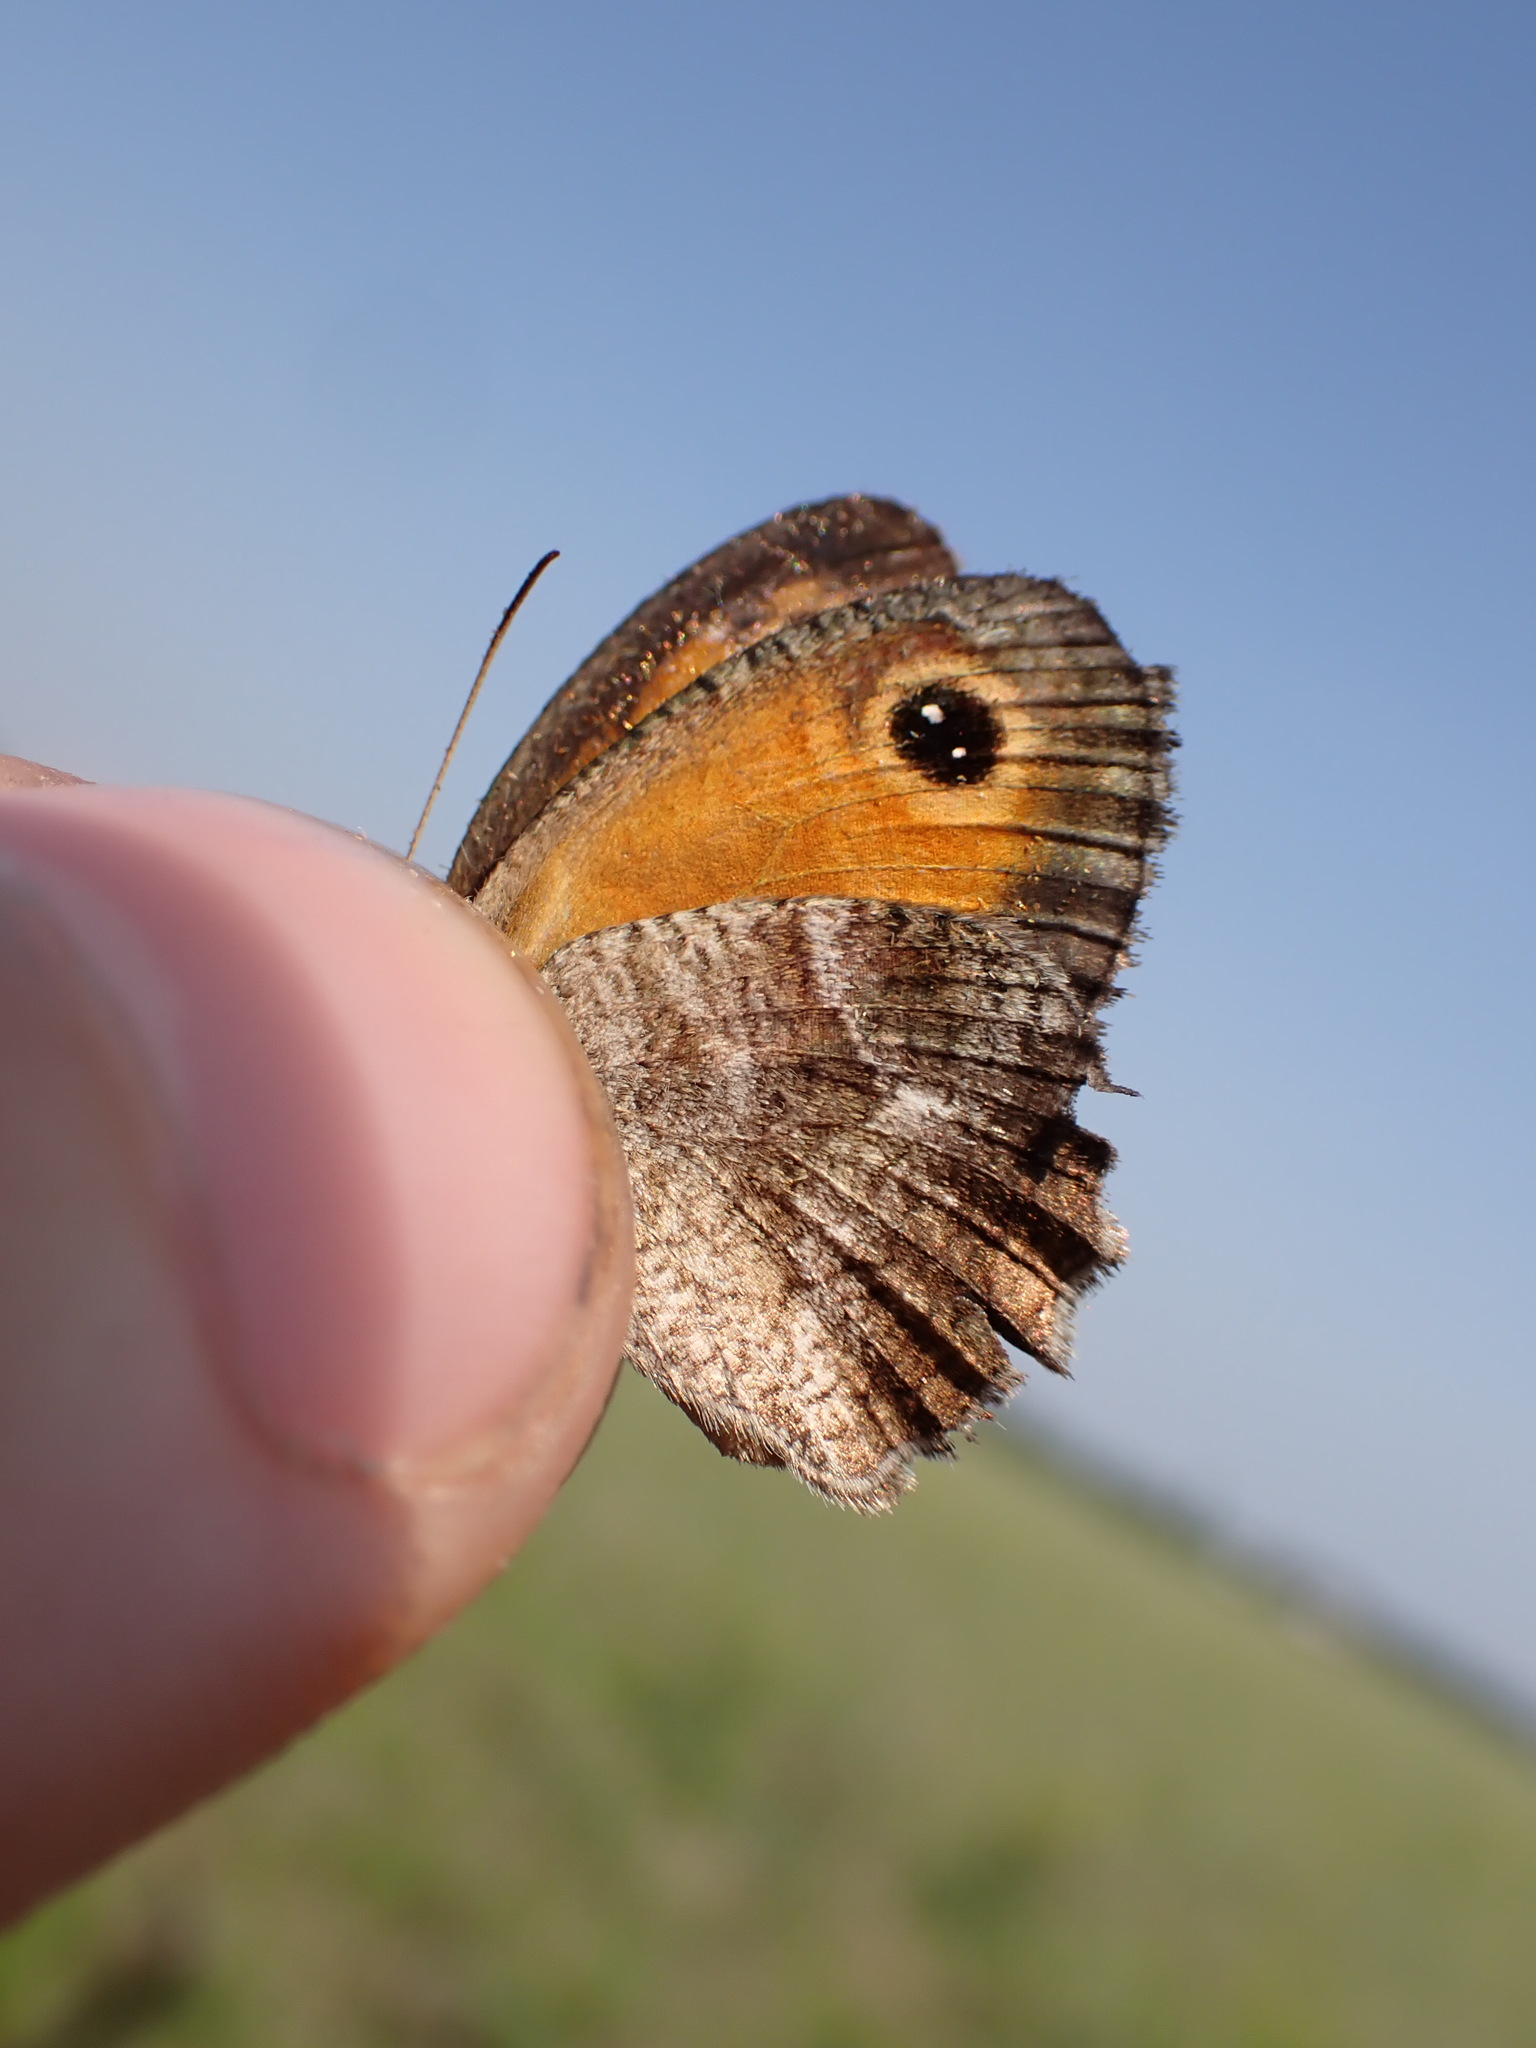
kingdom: Animalia
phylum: Arthropoda
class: Insecta
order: Lepidoptera
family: Nymphalidae
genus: Pyronia
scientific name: Pyronia cecilia
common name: Southern gatekeeper
